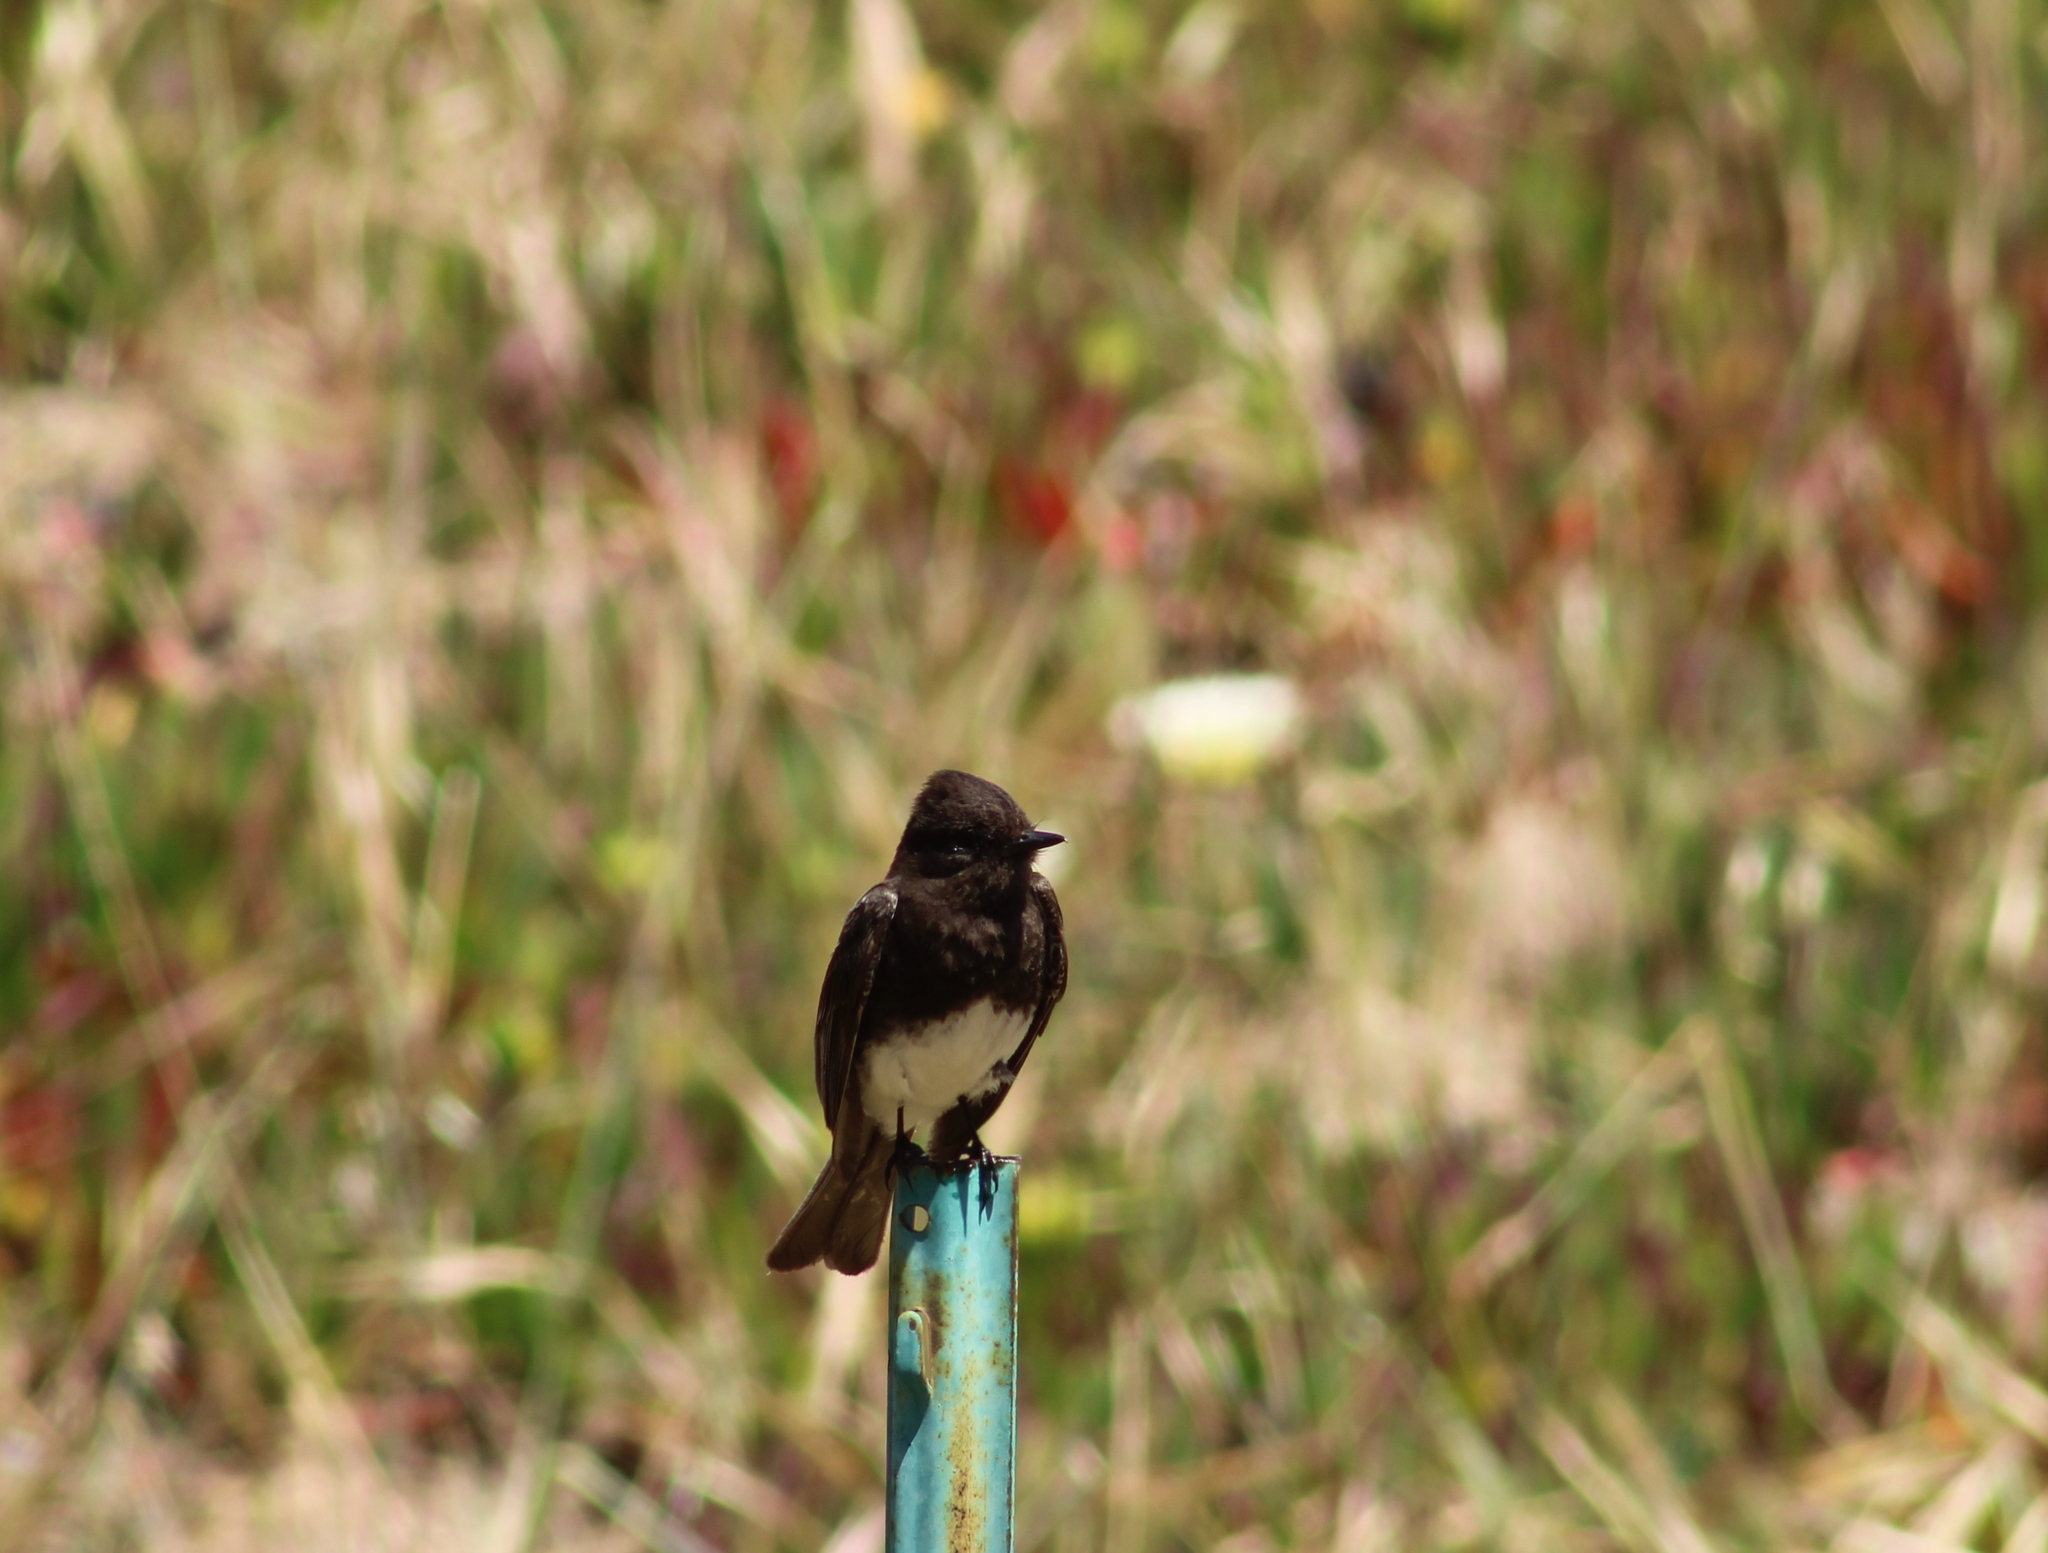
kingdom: Animalia
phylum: Chordata
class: Aves
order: Passeriformes
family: Tyrannidae
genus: Sayornis
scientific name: Sayornis nigricans
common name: Black phoebe
